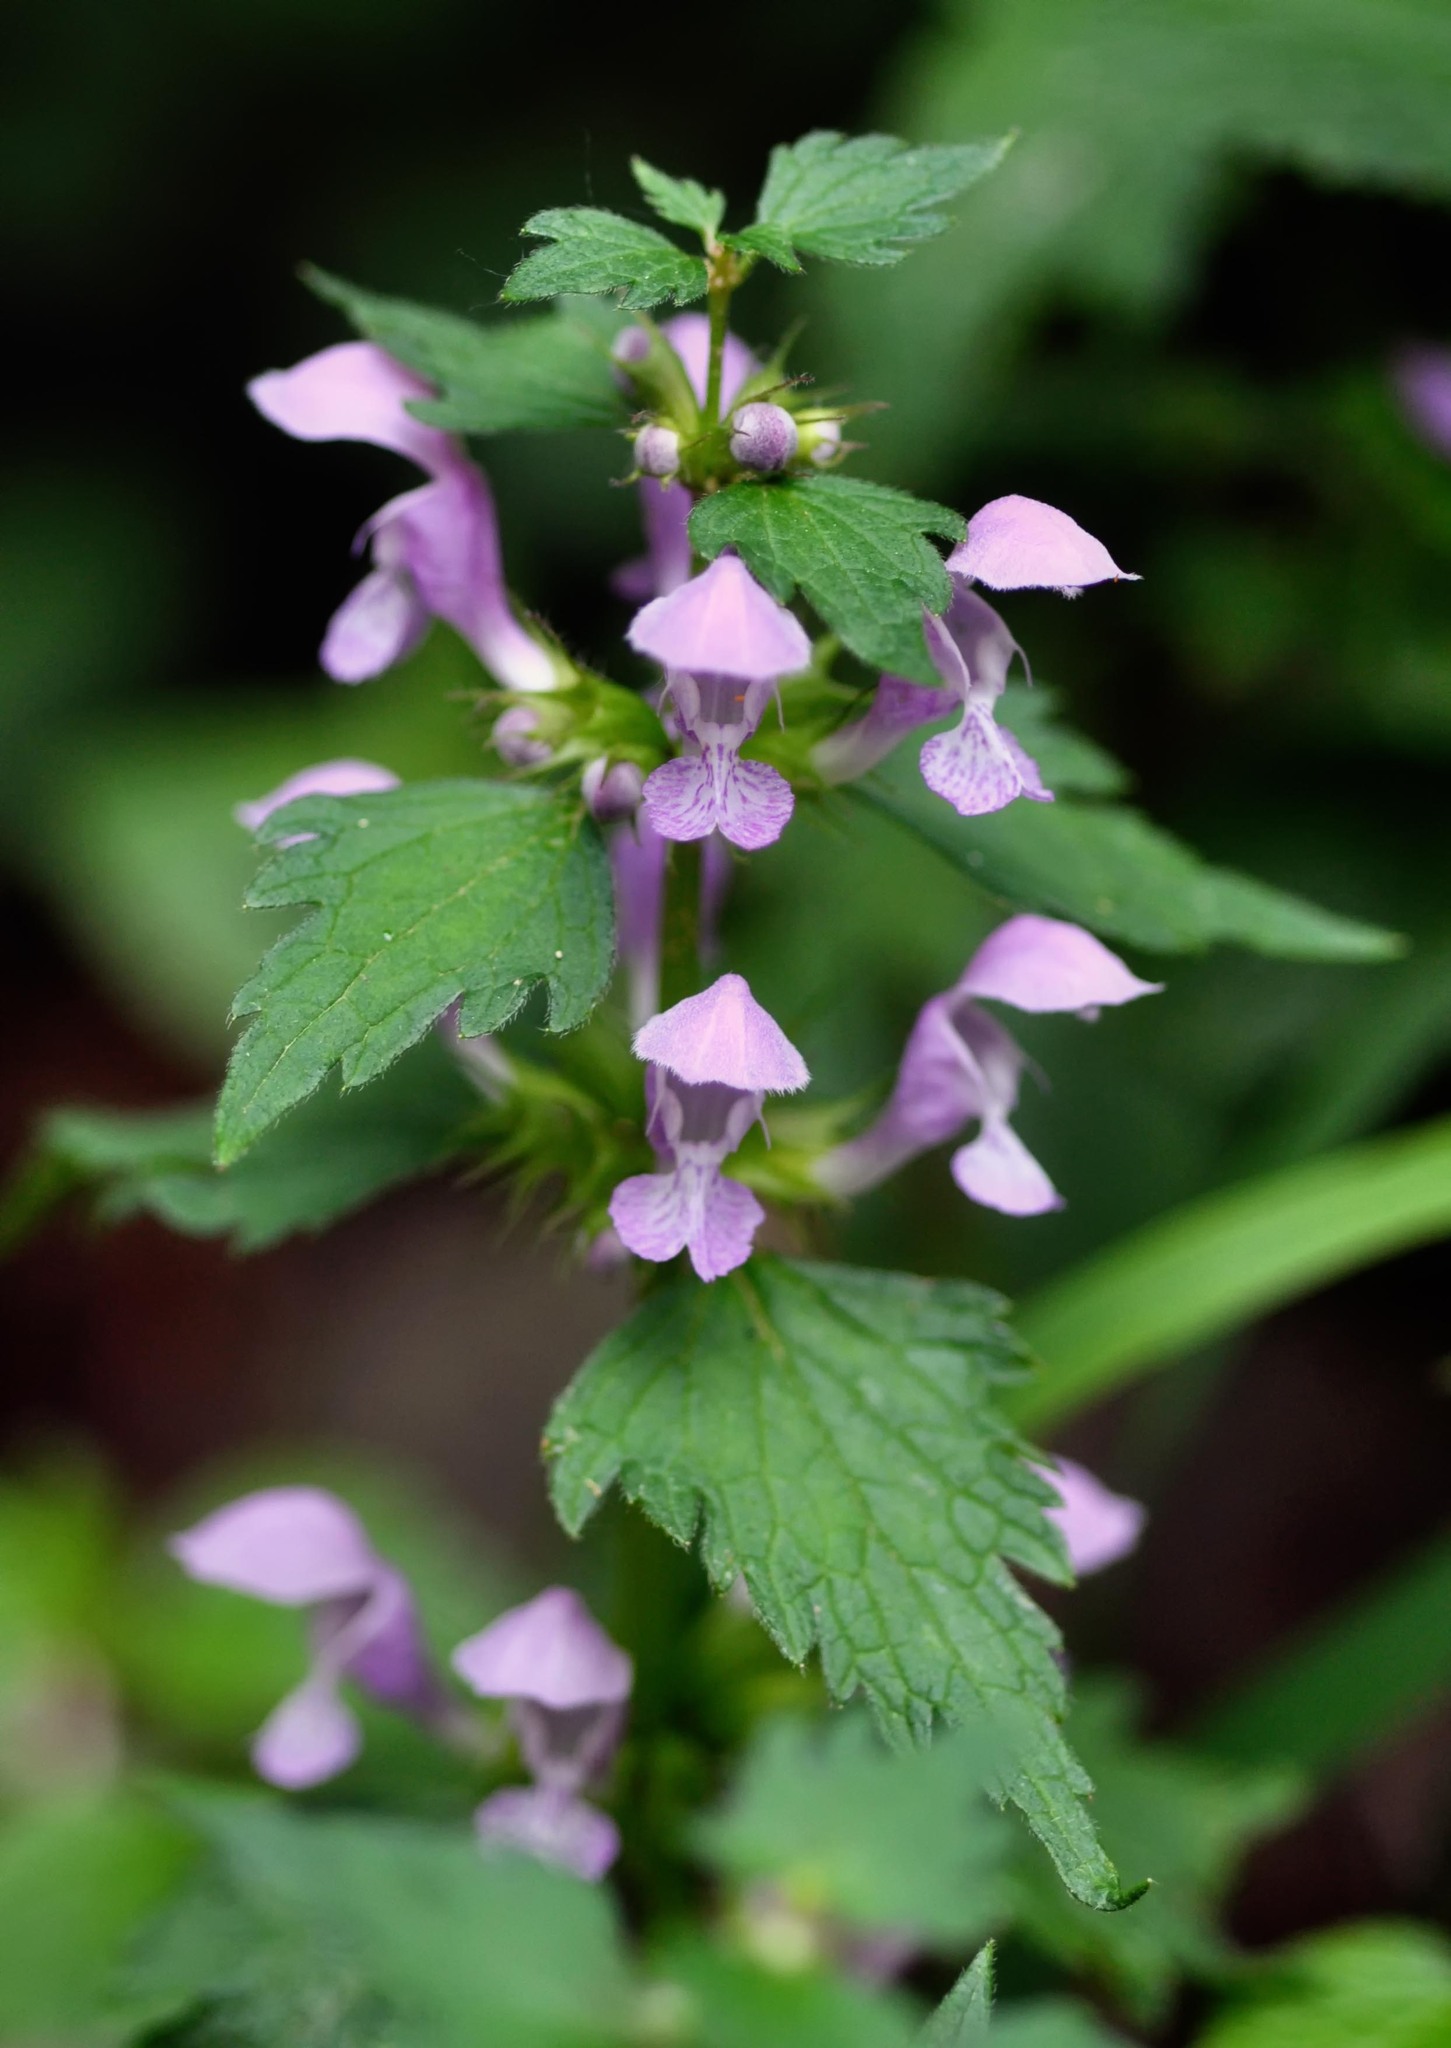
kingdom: Plantae
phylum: Tracheophyta
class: Magnoliopsida
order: Lamiales
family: Lamiaceae
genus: Lamium
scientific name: Lamium maculatum
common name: Spotted dead-nettle
